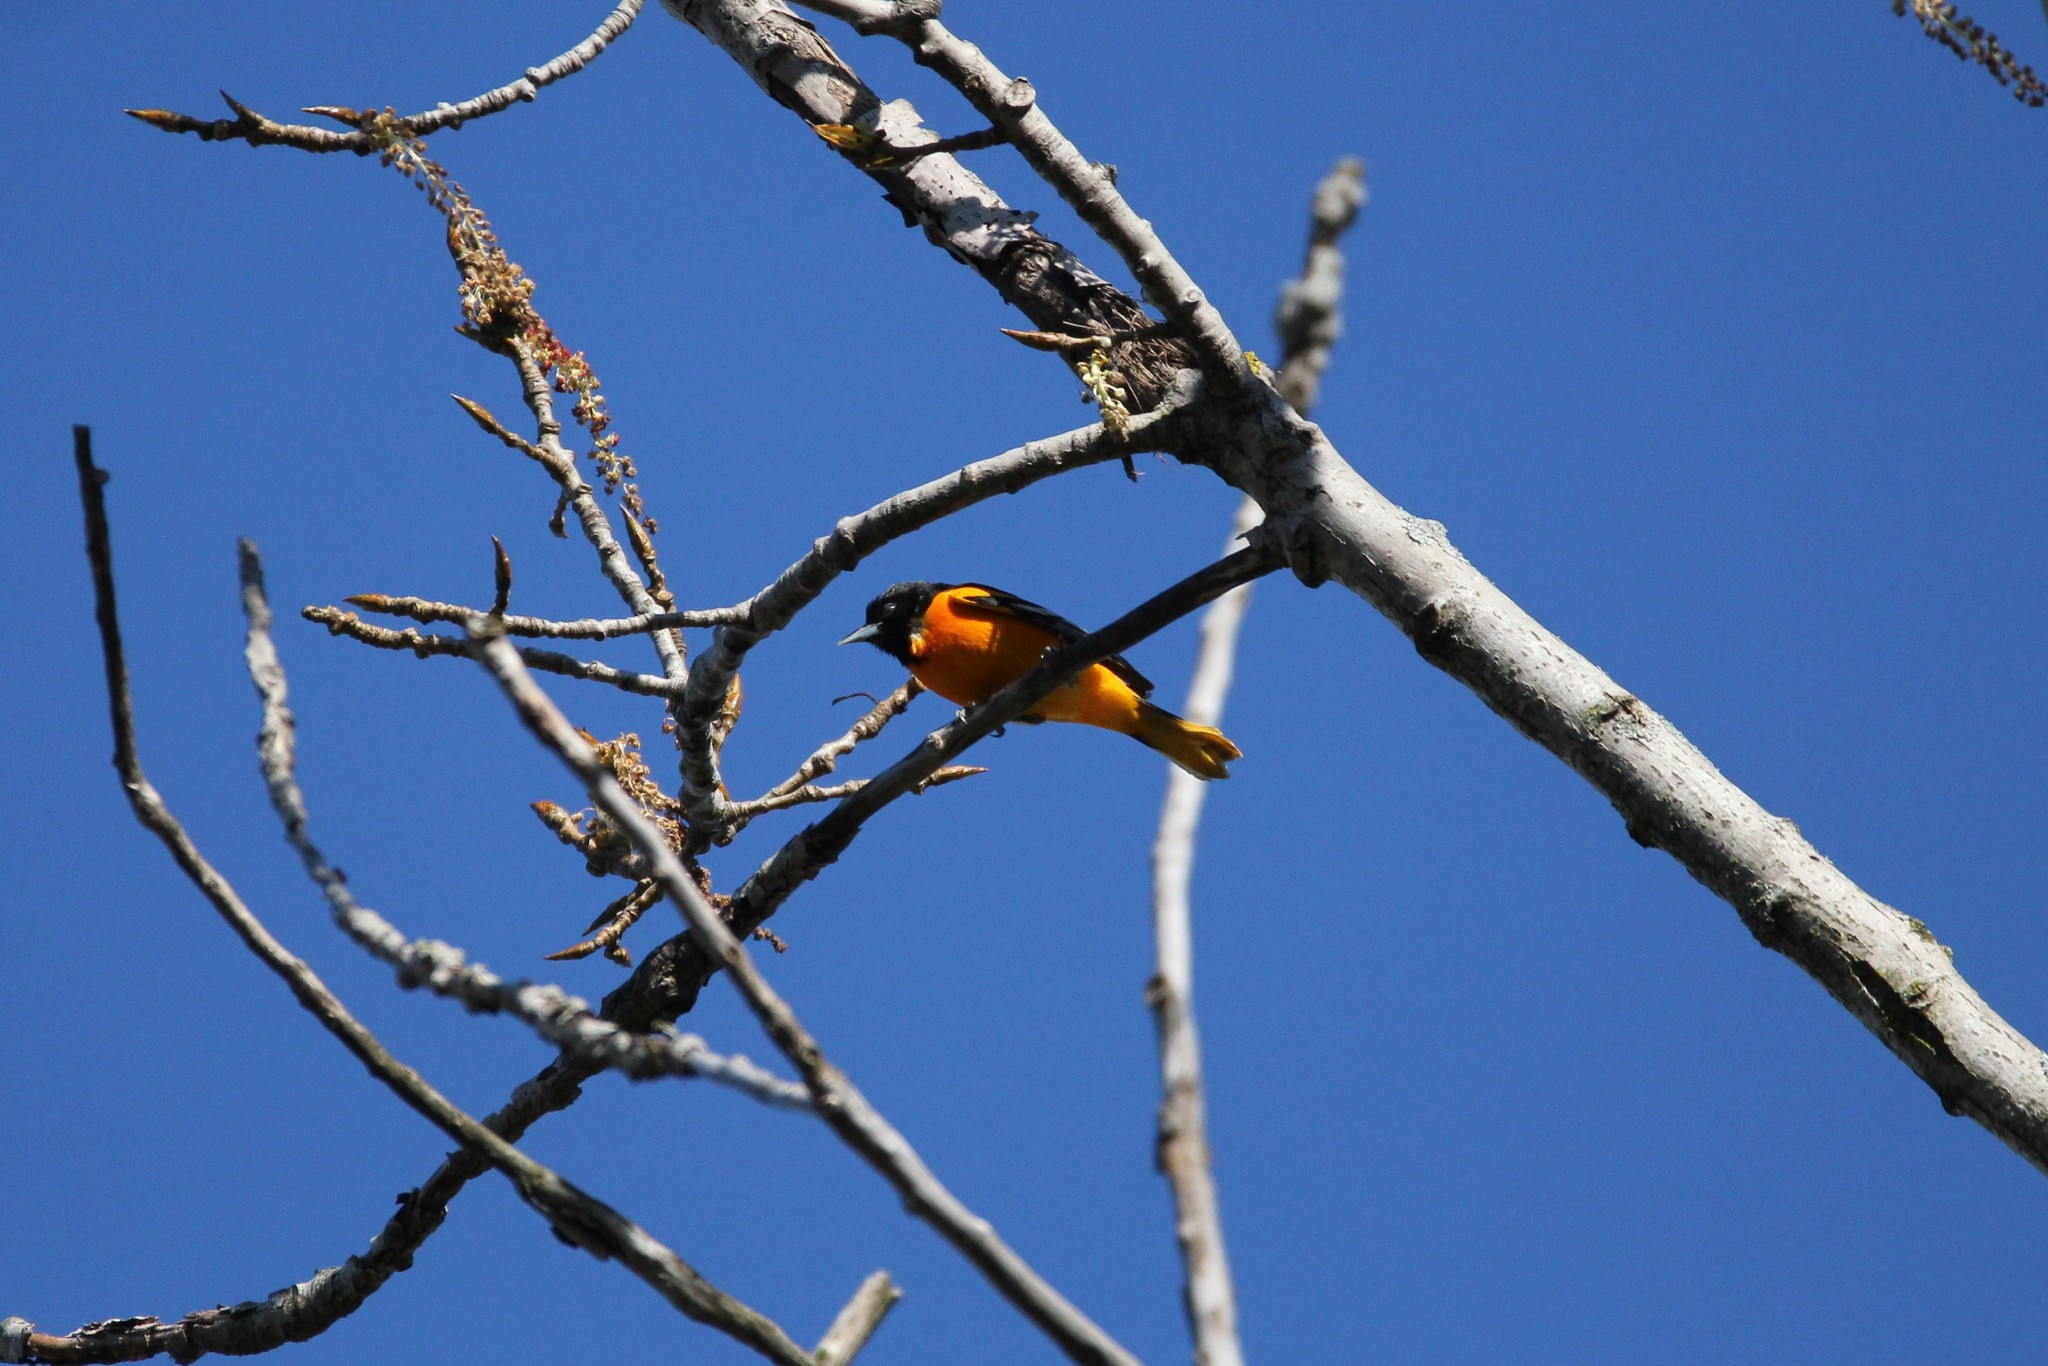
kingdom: Animalia
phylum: Chordata
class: Aves
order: Passeriformes
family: Icteridae
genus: Icterus
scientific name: Icterus galbula
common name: Baltimore oriole
